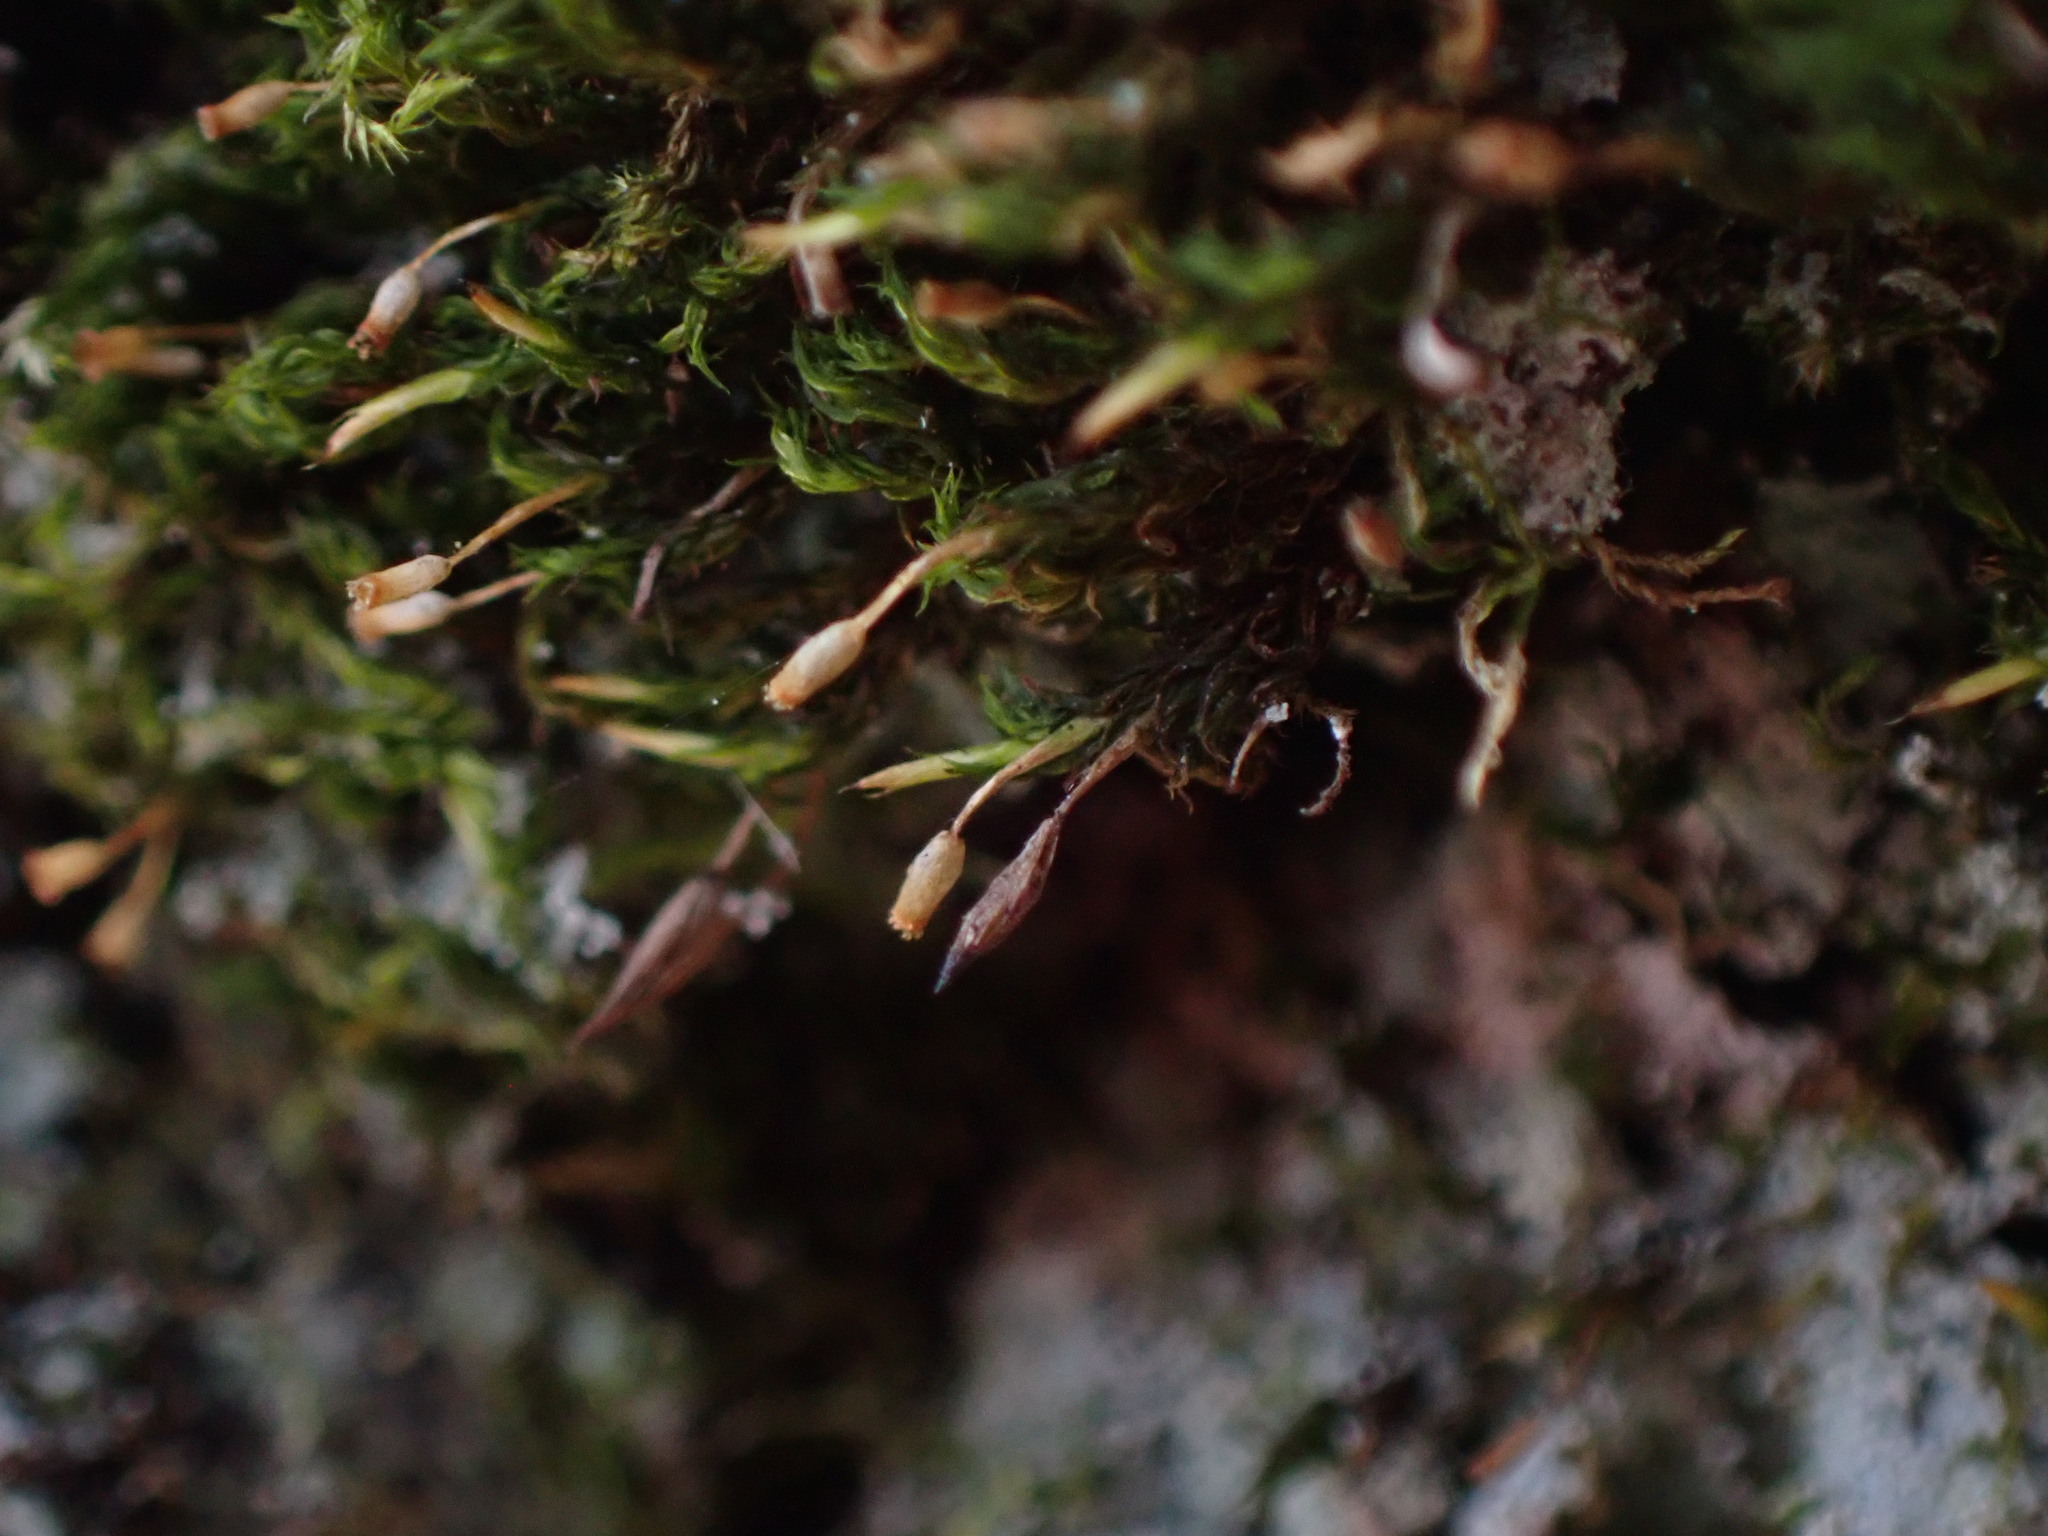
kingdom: Plantae
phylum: Bryophyta
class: Bryopsida
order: Dicranales
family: Rhabdoweisiaceae
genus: Glyphomitrium
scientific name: Glyphomitrium humillimum
